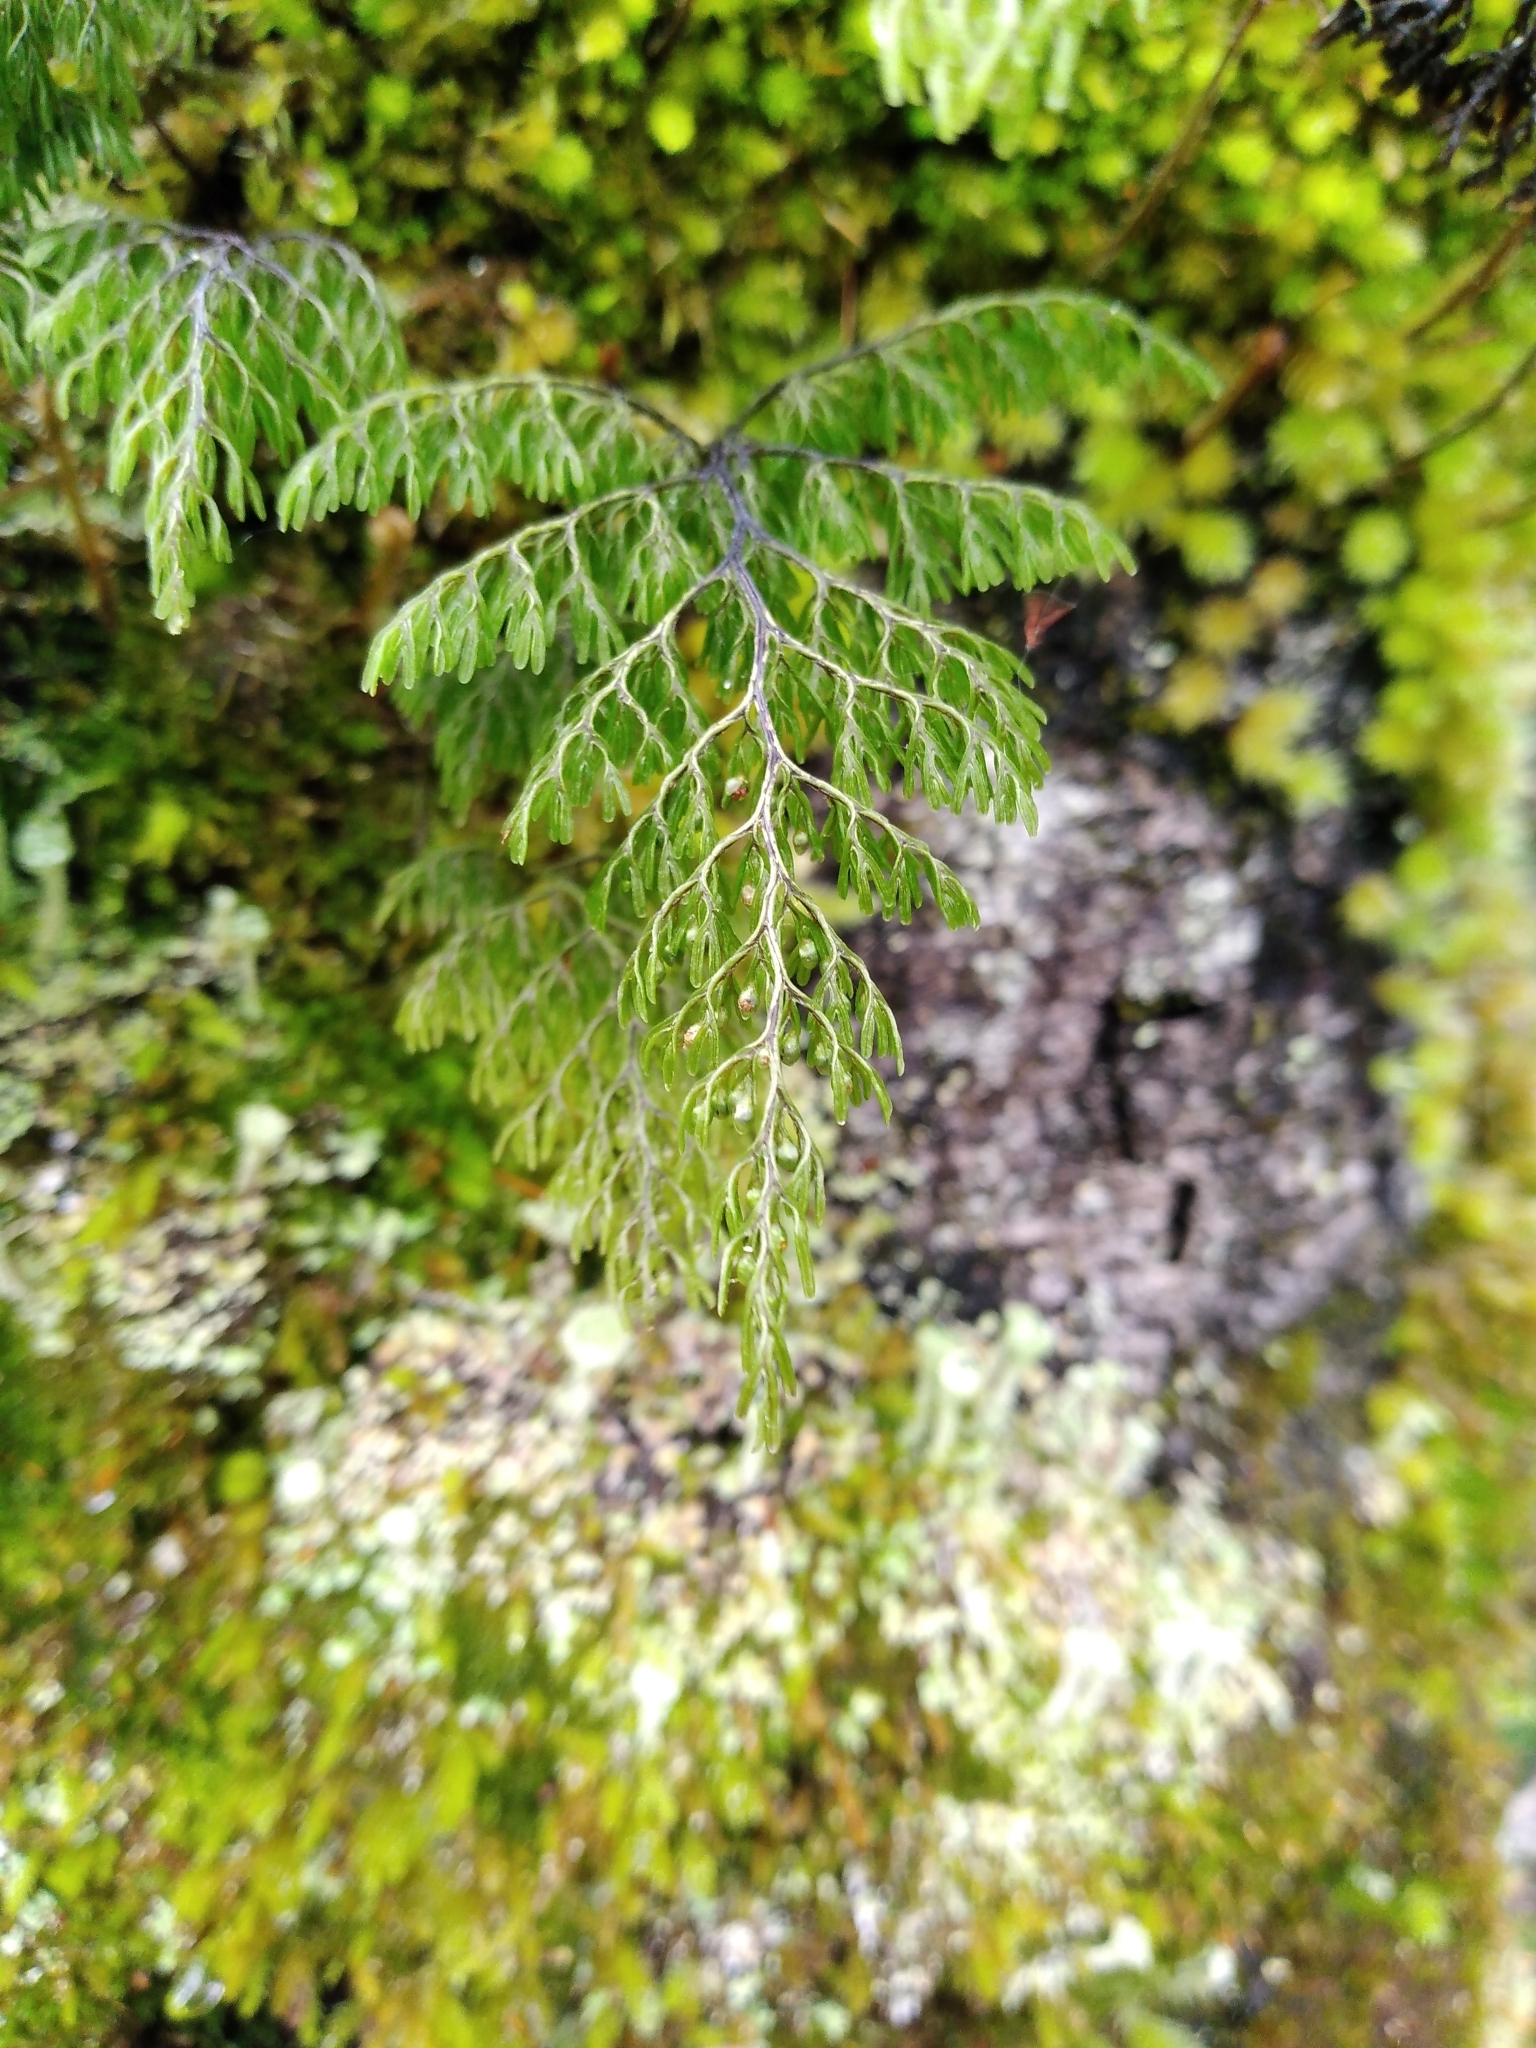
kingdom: Plantae
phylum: Tracheophyta
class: Polypodiopsida
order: Hymenophyllales
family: Hymenophyllaceae
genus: Hymenophyllum
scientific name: Hymenophyllum villosum
